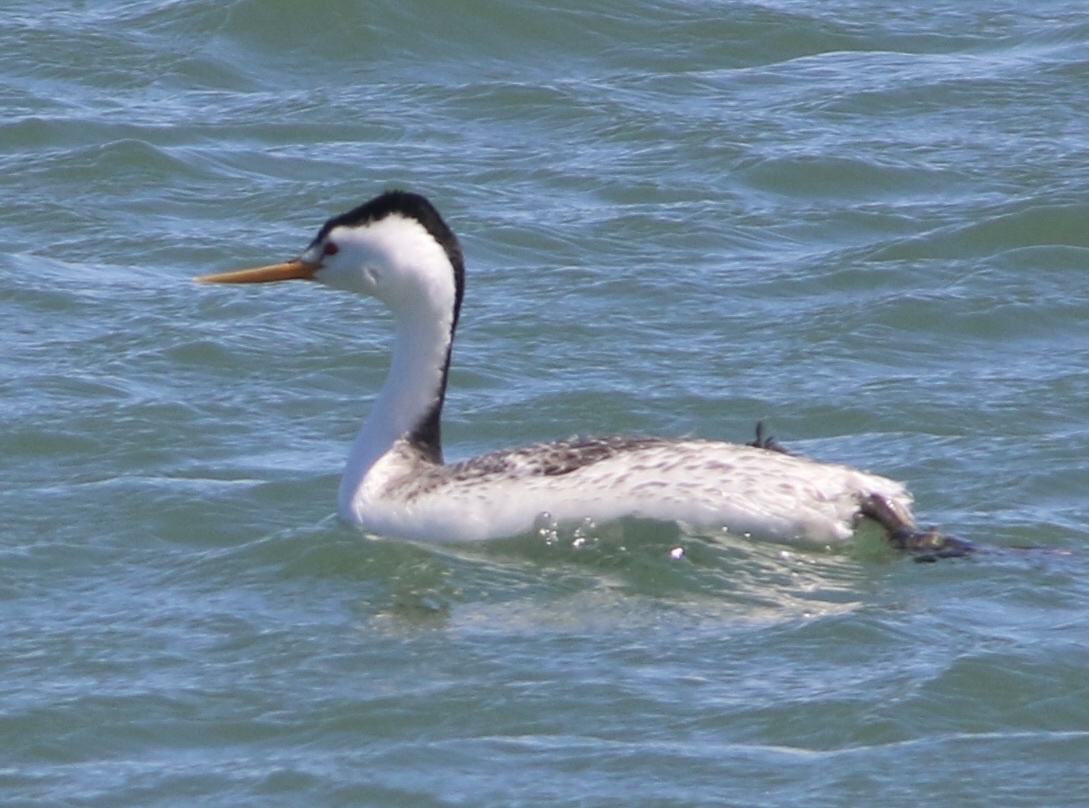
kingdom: Animalia
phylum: Chordata
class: Aves
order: Podicipediformes
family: Podicipedidae
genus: Aechmophorus
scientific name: Aechmophorus clarkii
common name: Clark's grebe
